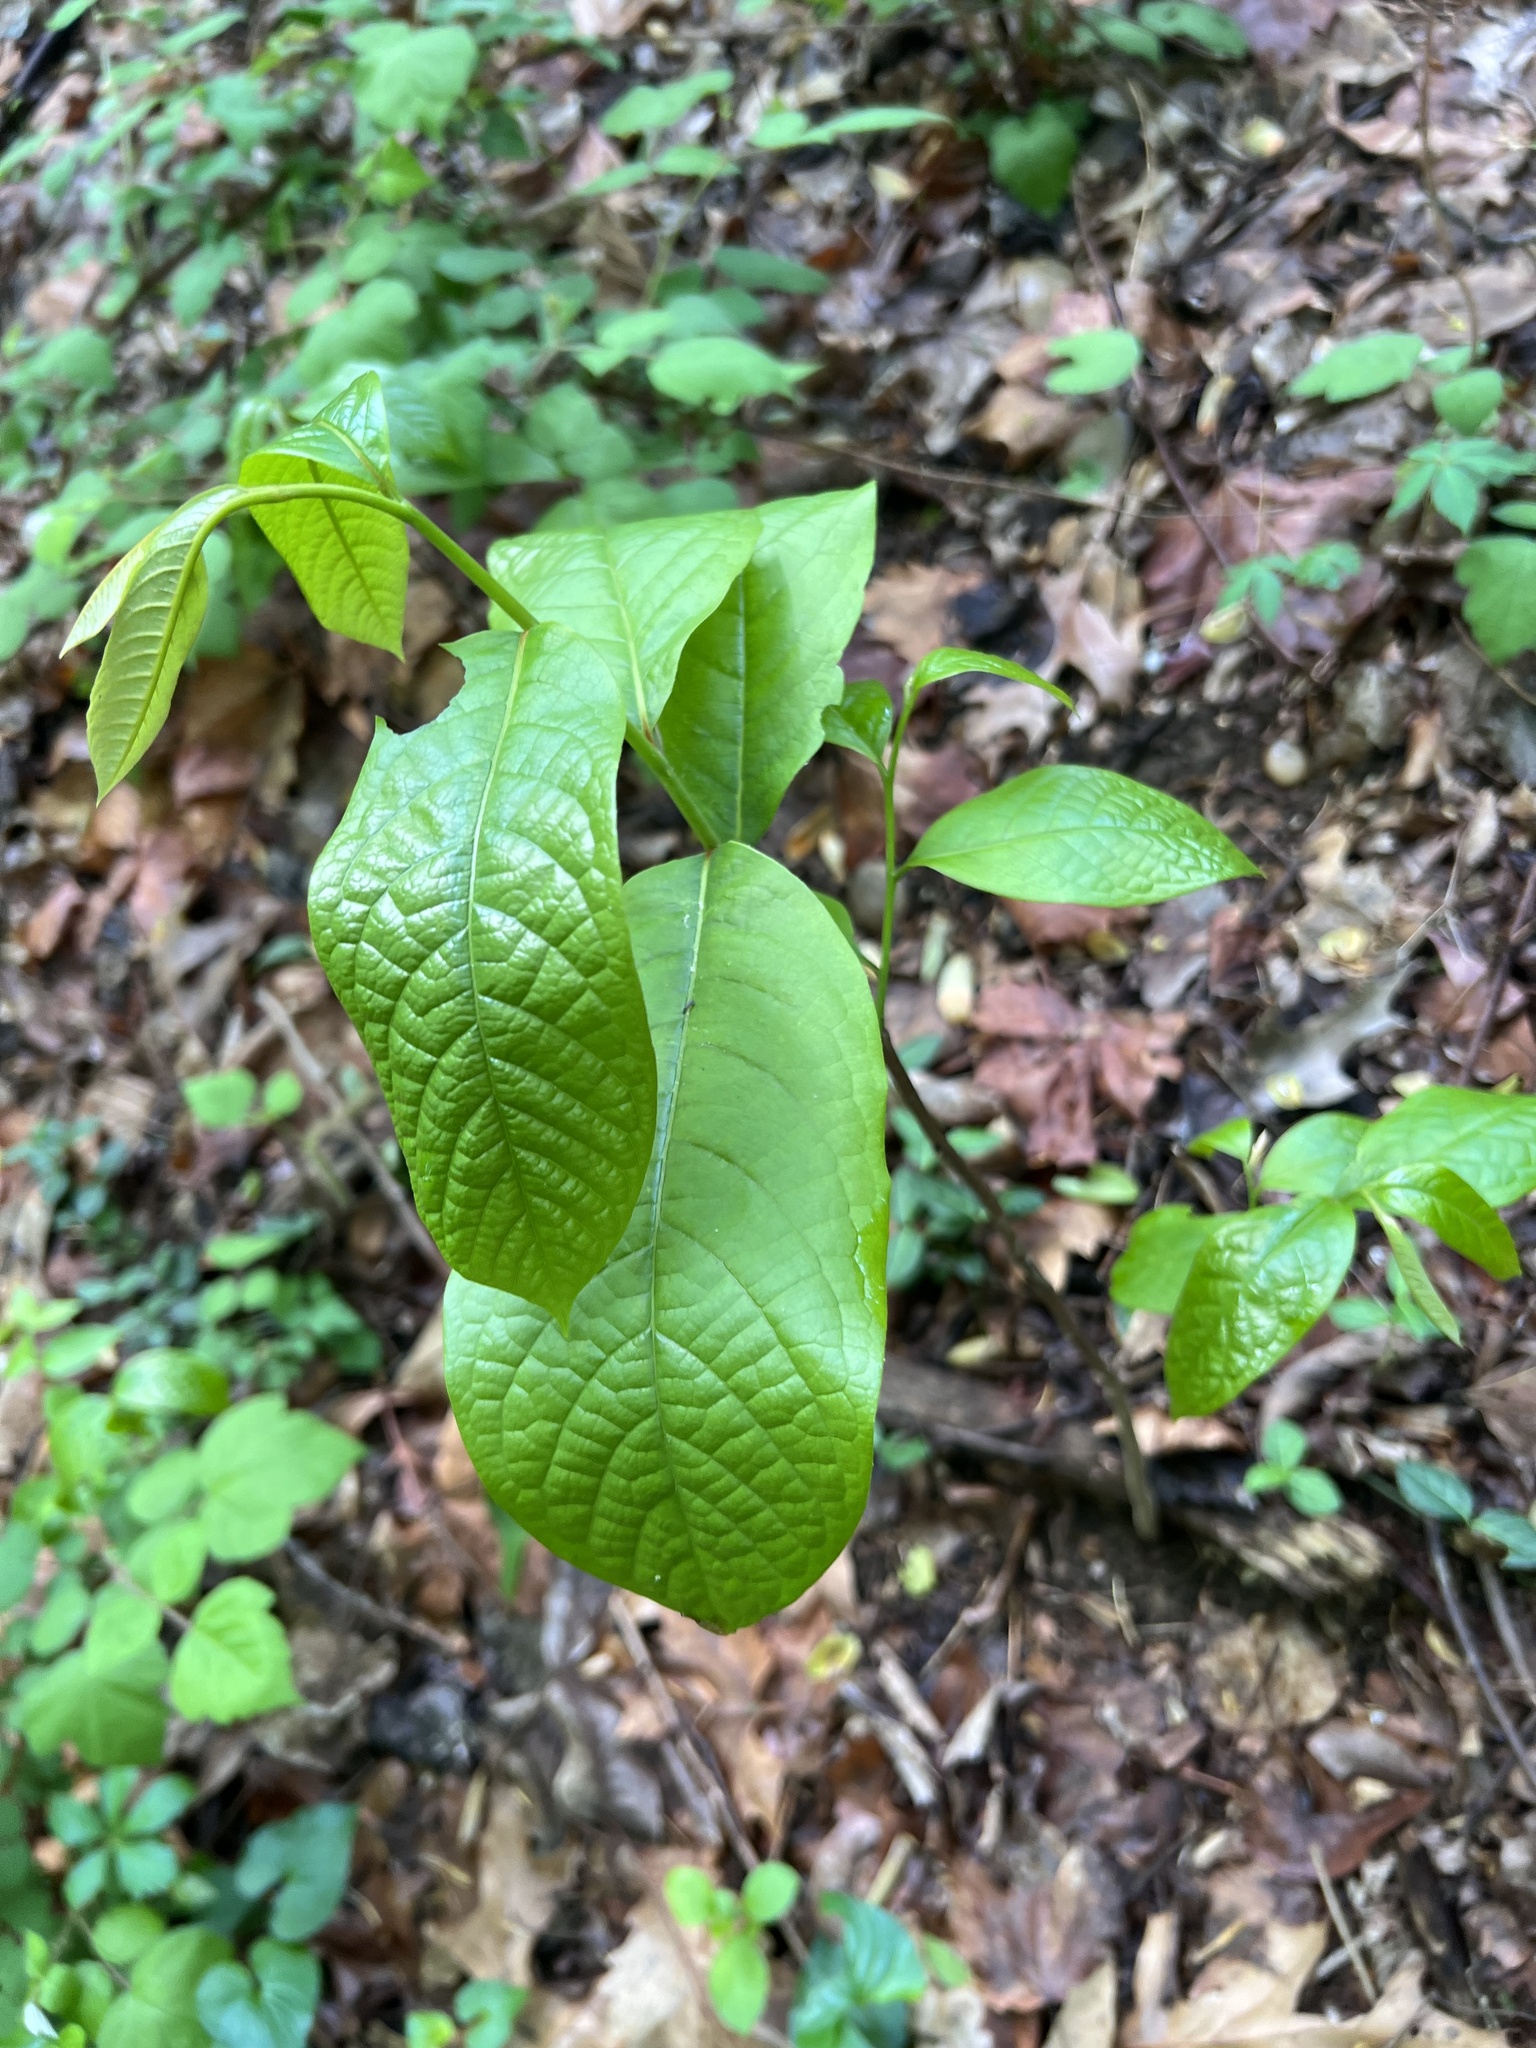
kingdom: Plantae
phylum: Tracheophyta
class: Magnoliopsida
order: Magnoliales
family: Annonaceae
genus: Asimina
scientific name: Asimina triloba
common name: Dog-banana
